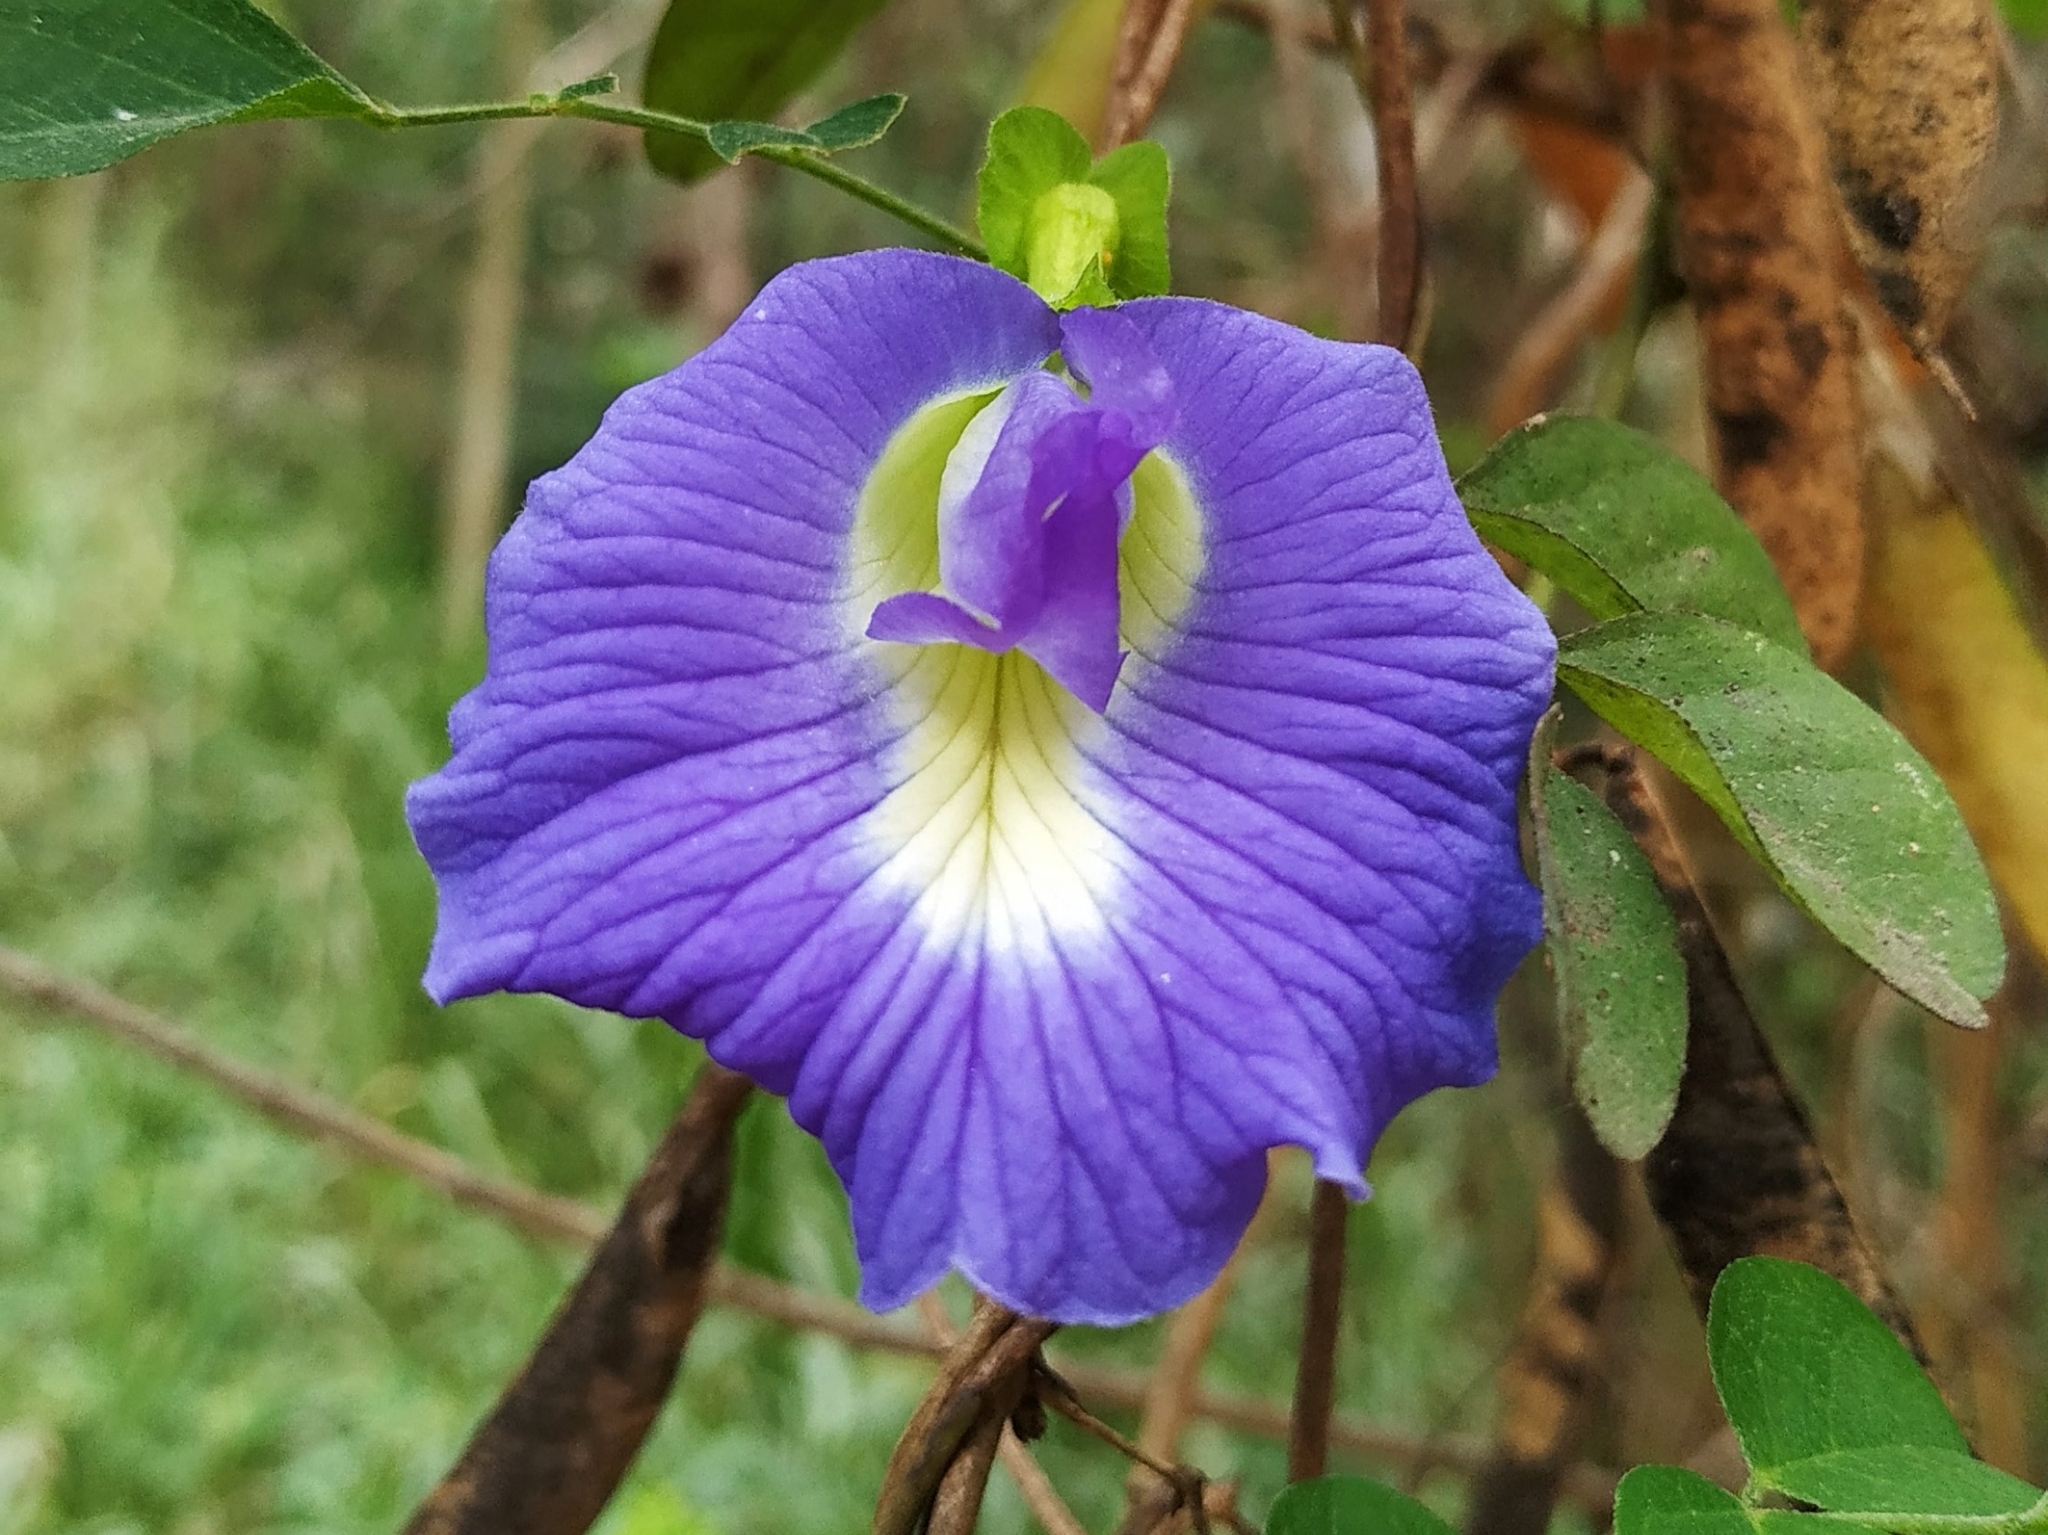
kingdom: Plantae
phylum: Tracheophyta
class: Magnoliopsida
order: Fabales
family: Fabaceae
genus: Clitoria
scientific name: Clitoria ternatea
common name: Asian pigeonwings
